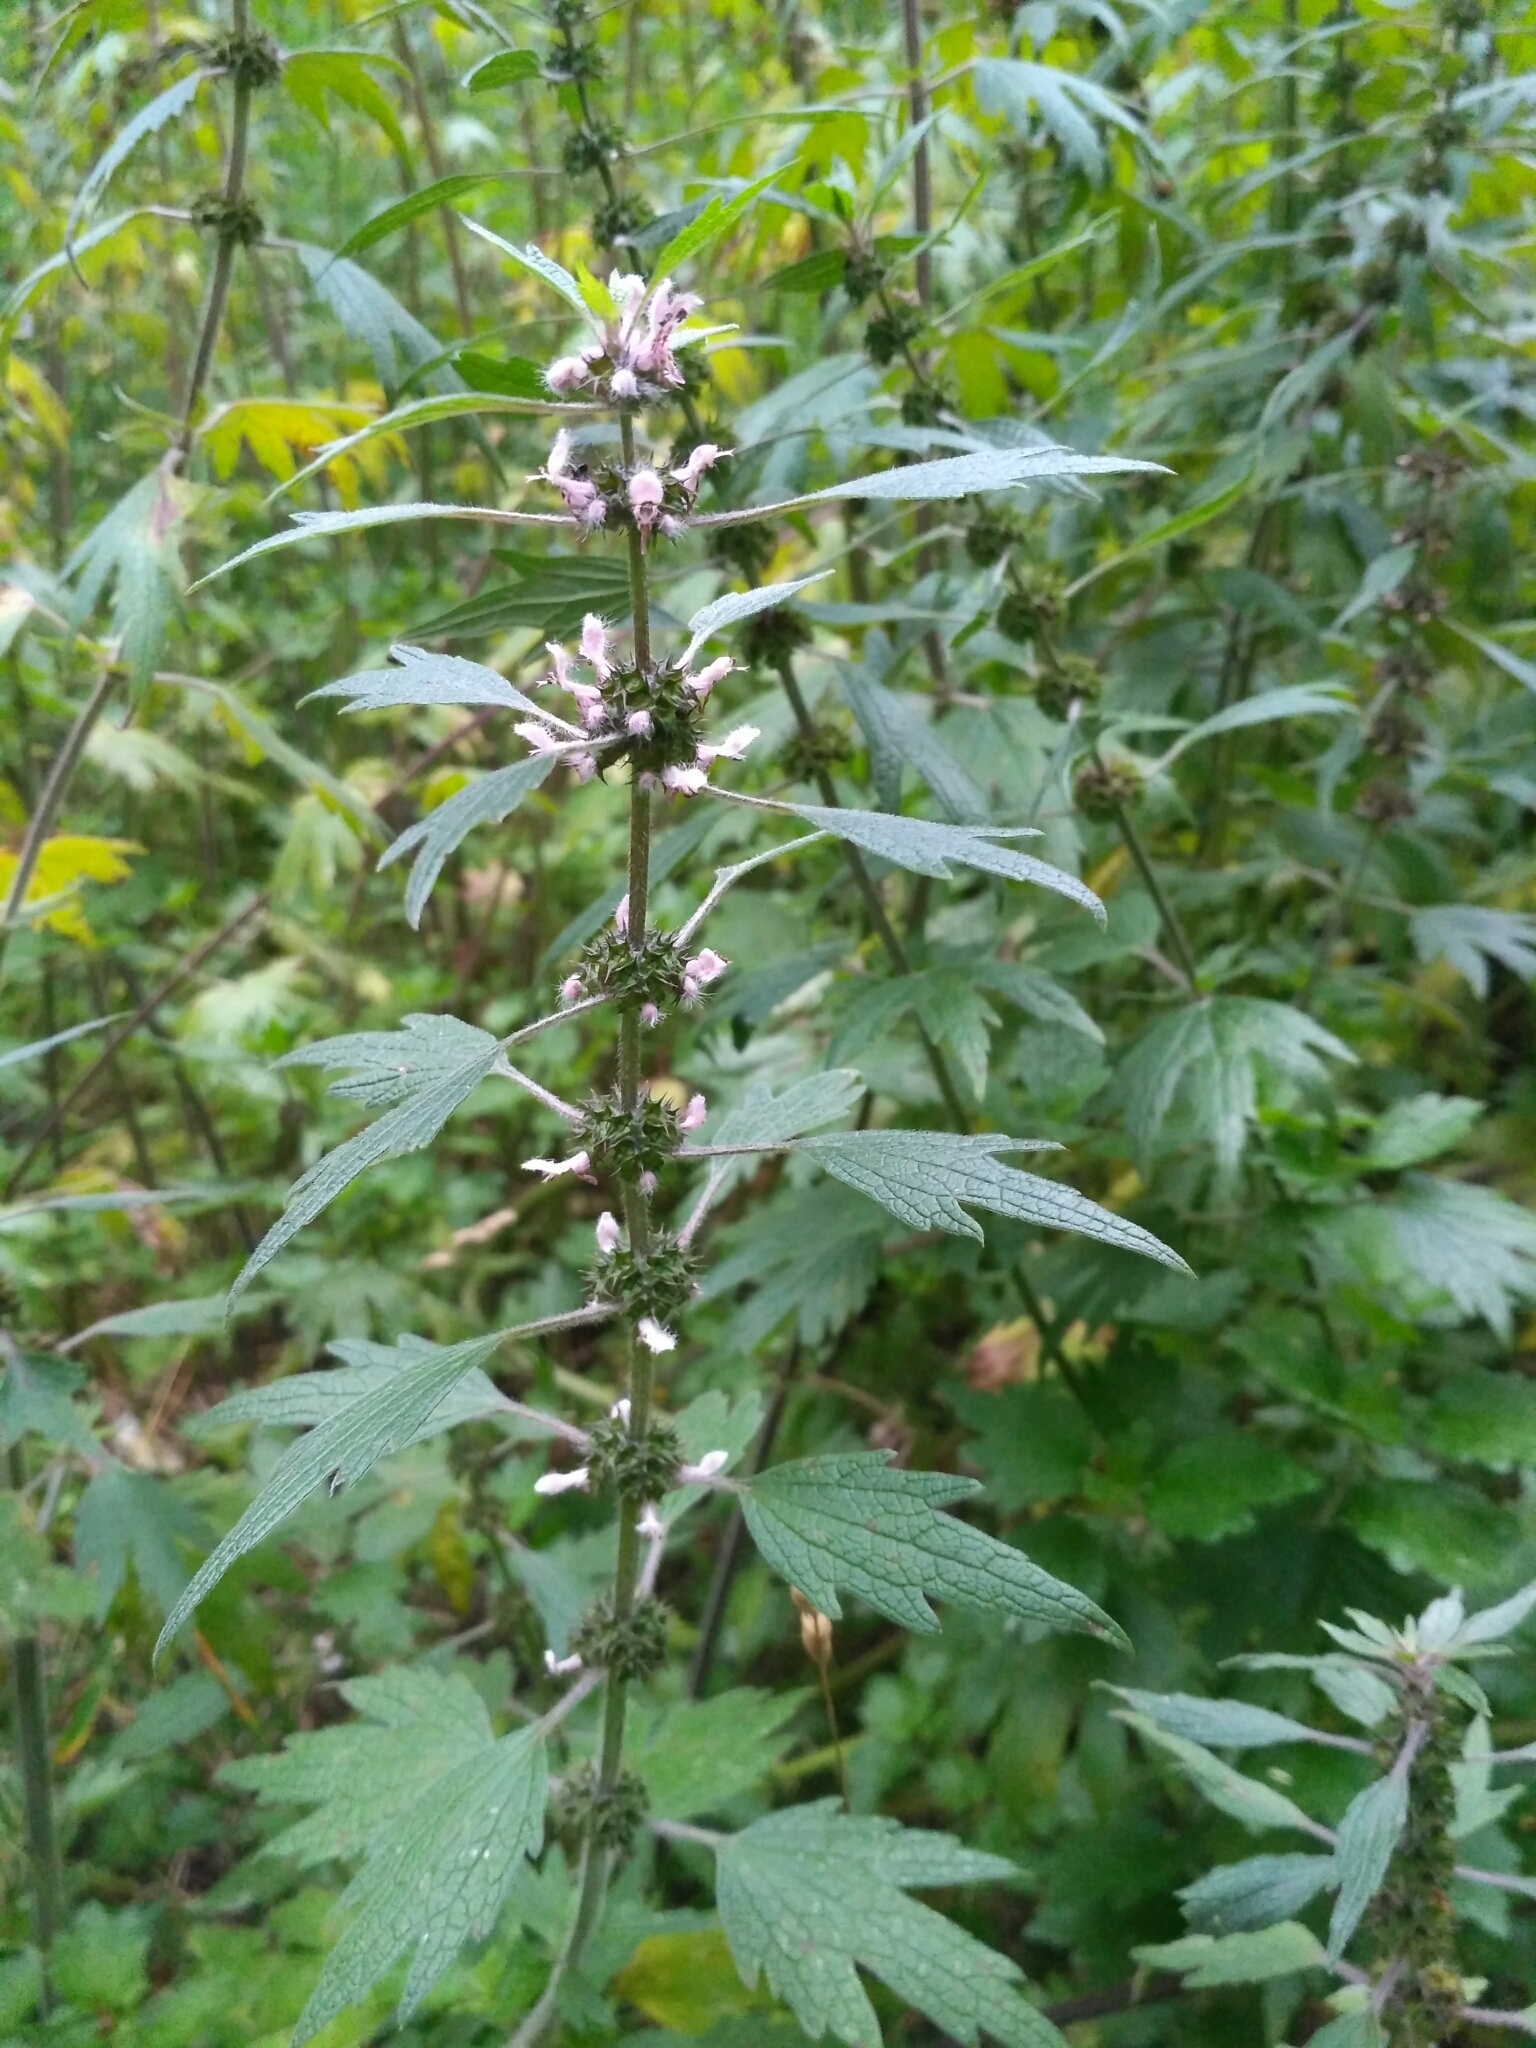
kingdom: Plantae
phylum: Tracheophyta
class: Magnoliopsida
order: Lamiales
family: Lamiaceae
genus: Leonurus
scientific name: Leonurus quinquelobatus
